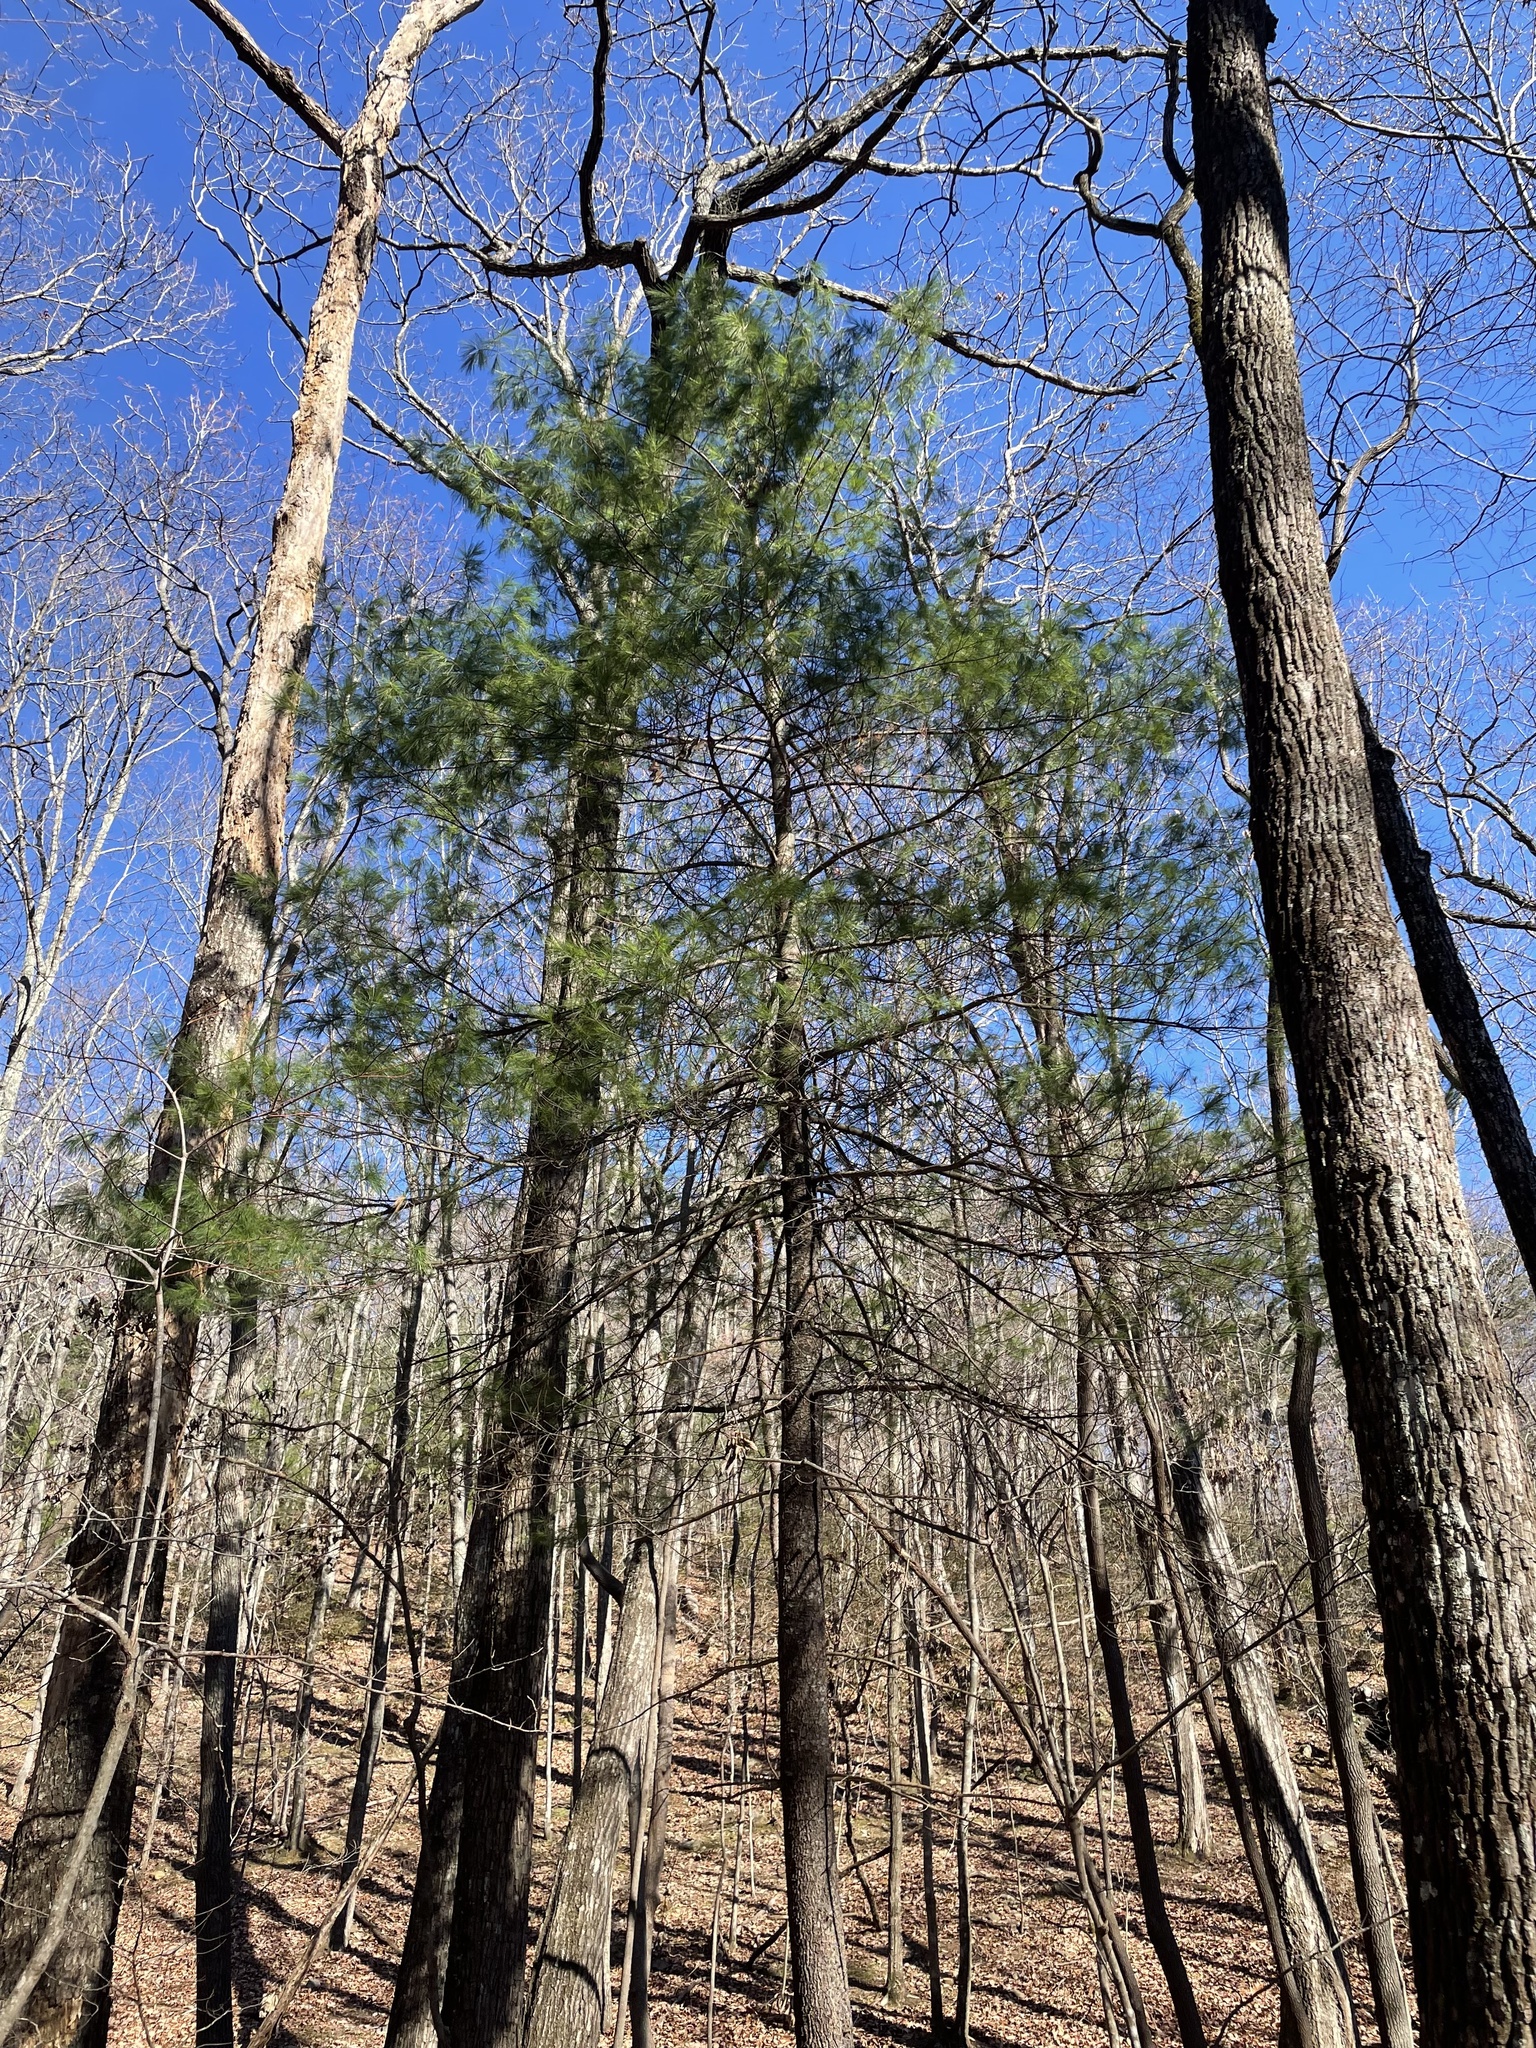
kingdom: Plantae
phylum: Tracheophyta
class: Pinopsida
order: Pinales
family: Pinaceae
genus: Pinus
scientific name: Pinus strobus
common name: Weymouth pine
